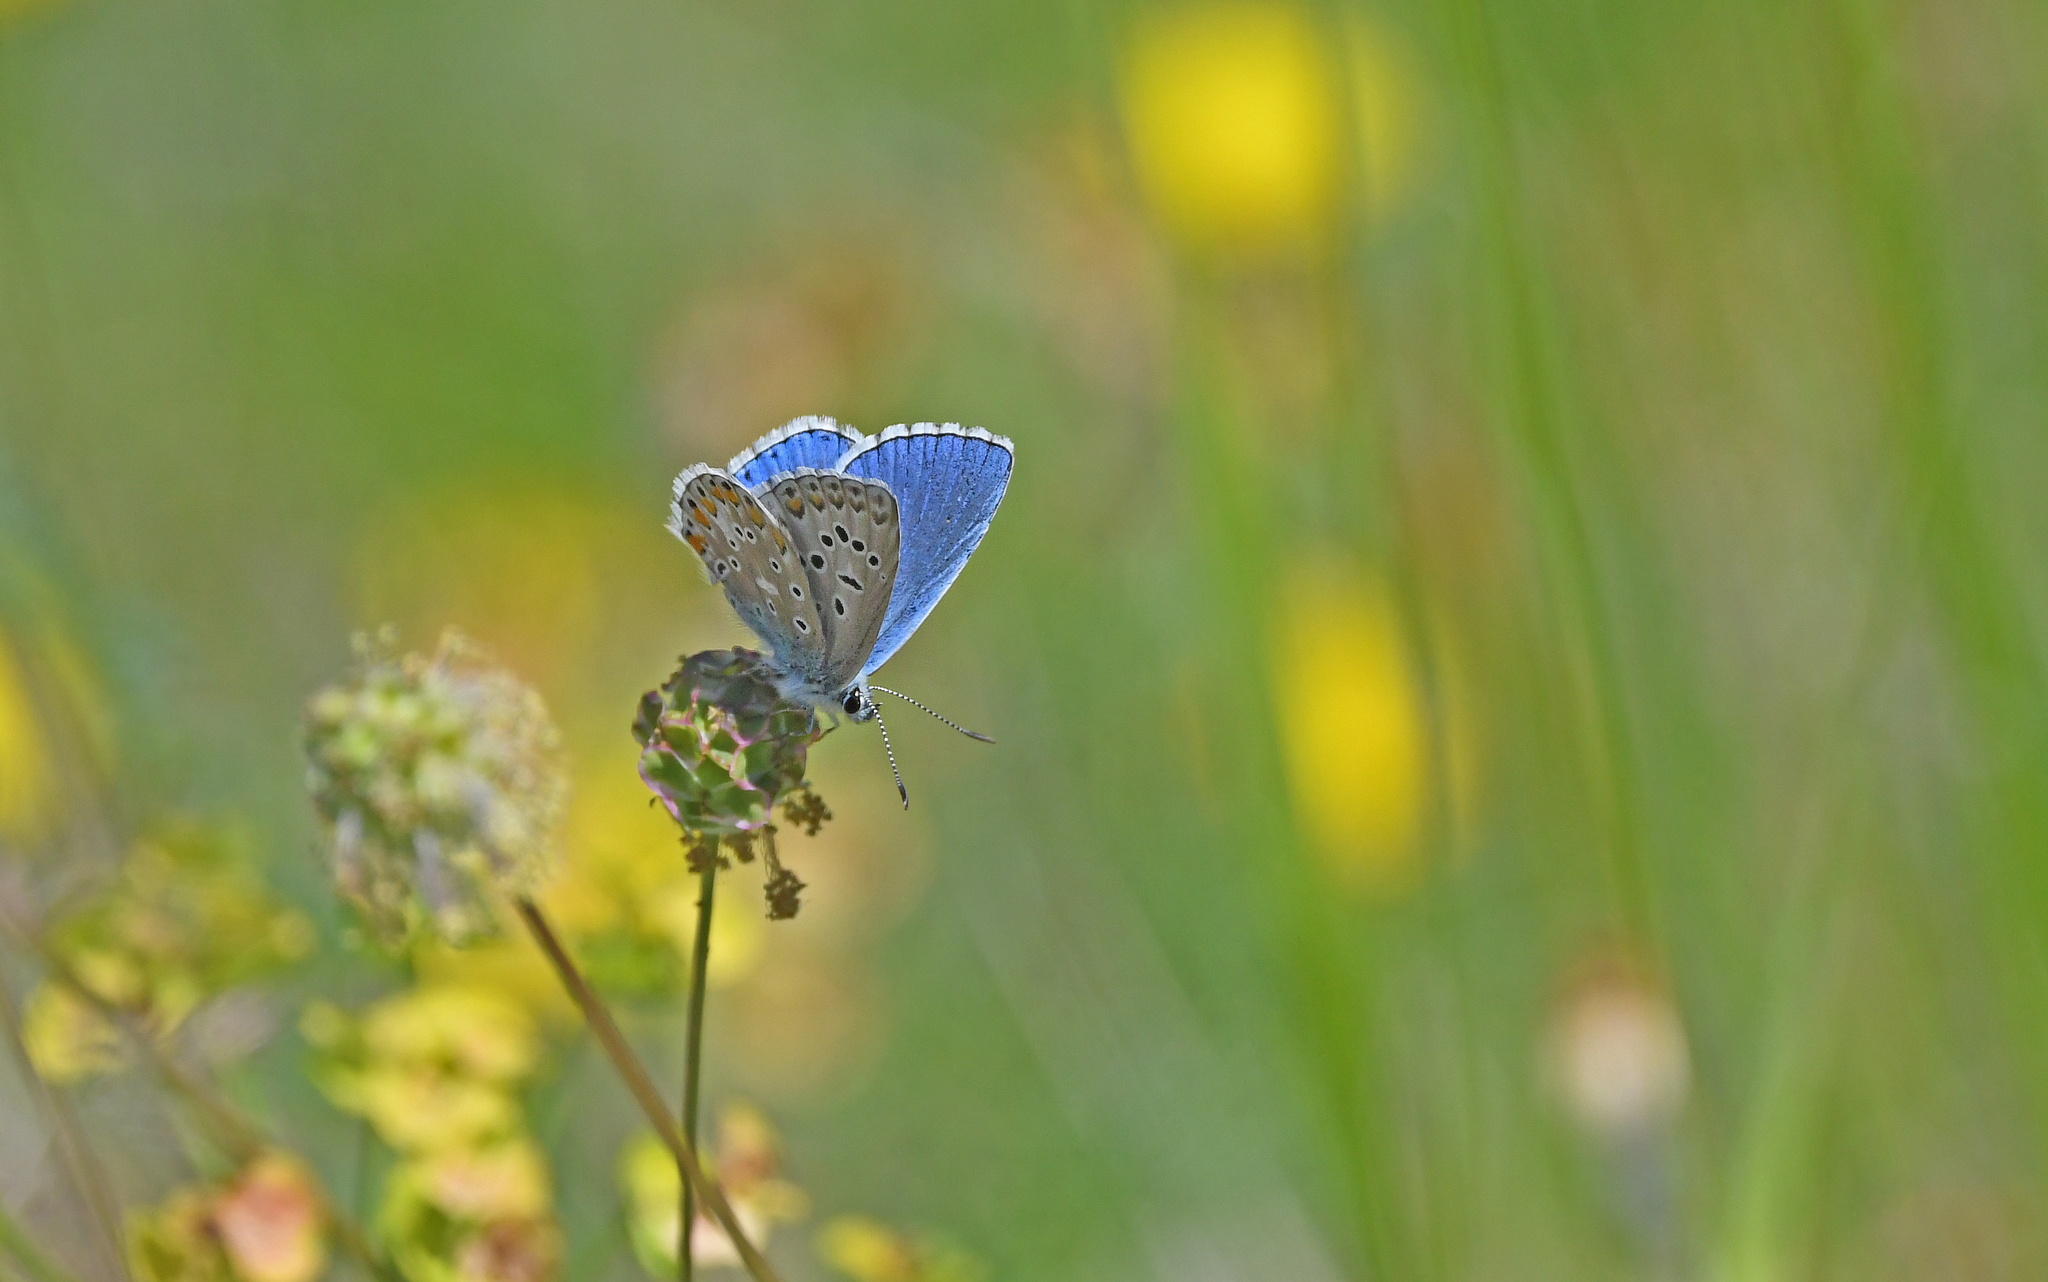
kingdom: Animalia
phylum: Arthropoda
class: Insecta
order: Lepidoptera
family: Lycaenidae
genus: Lysandra
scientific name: Lysandra bellargus
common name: Adonis blue
